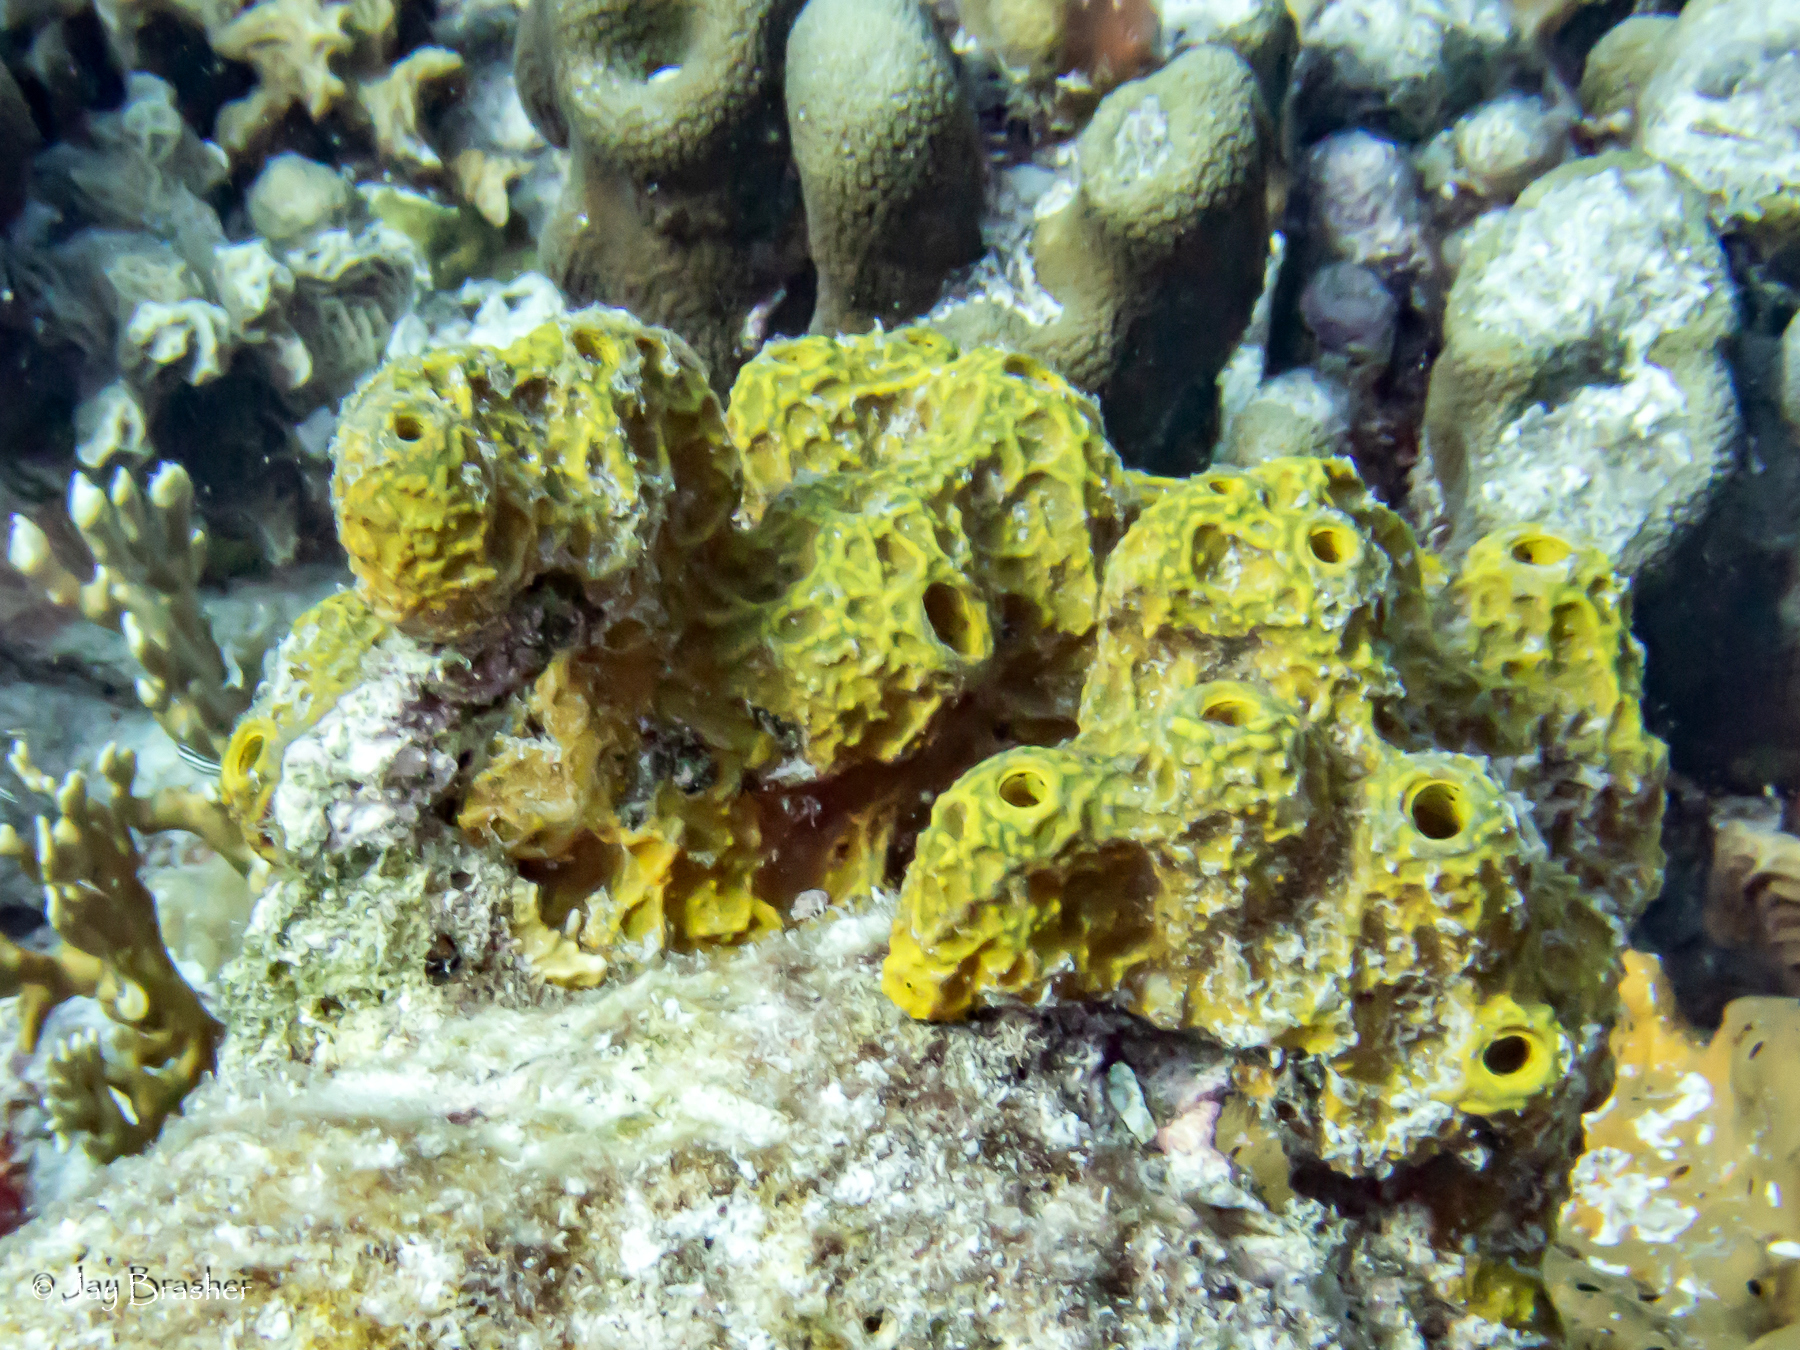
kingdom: Animalia
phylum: Porifera
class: Demospongiae
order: Verongiida
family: Aplysinidae
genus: Verongula
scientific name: Verongula rigida
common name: Pitted sponge
